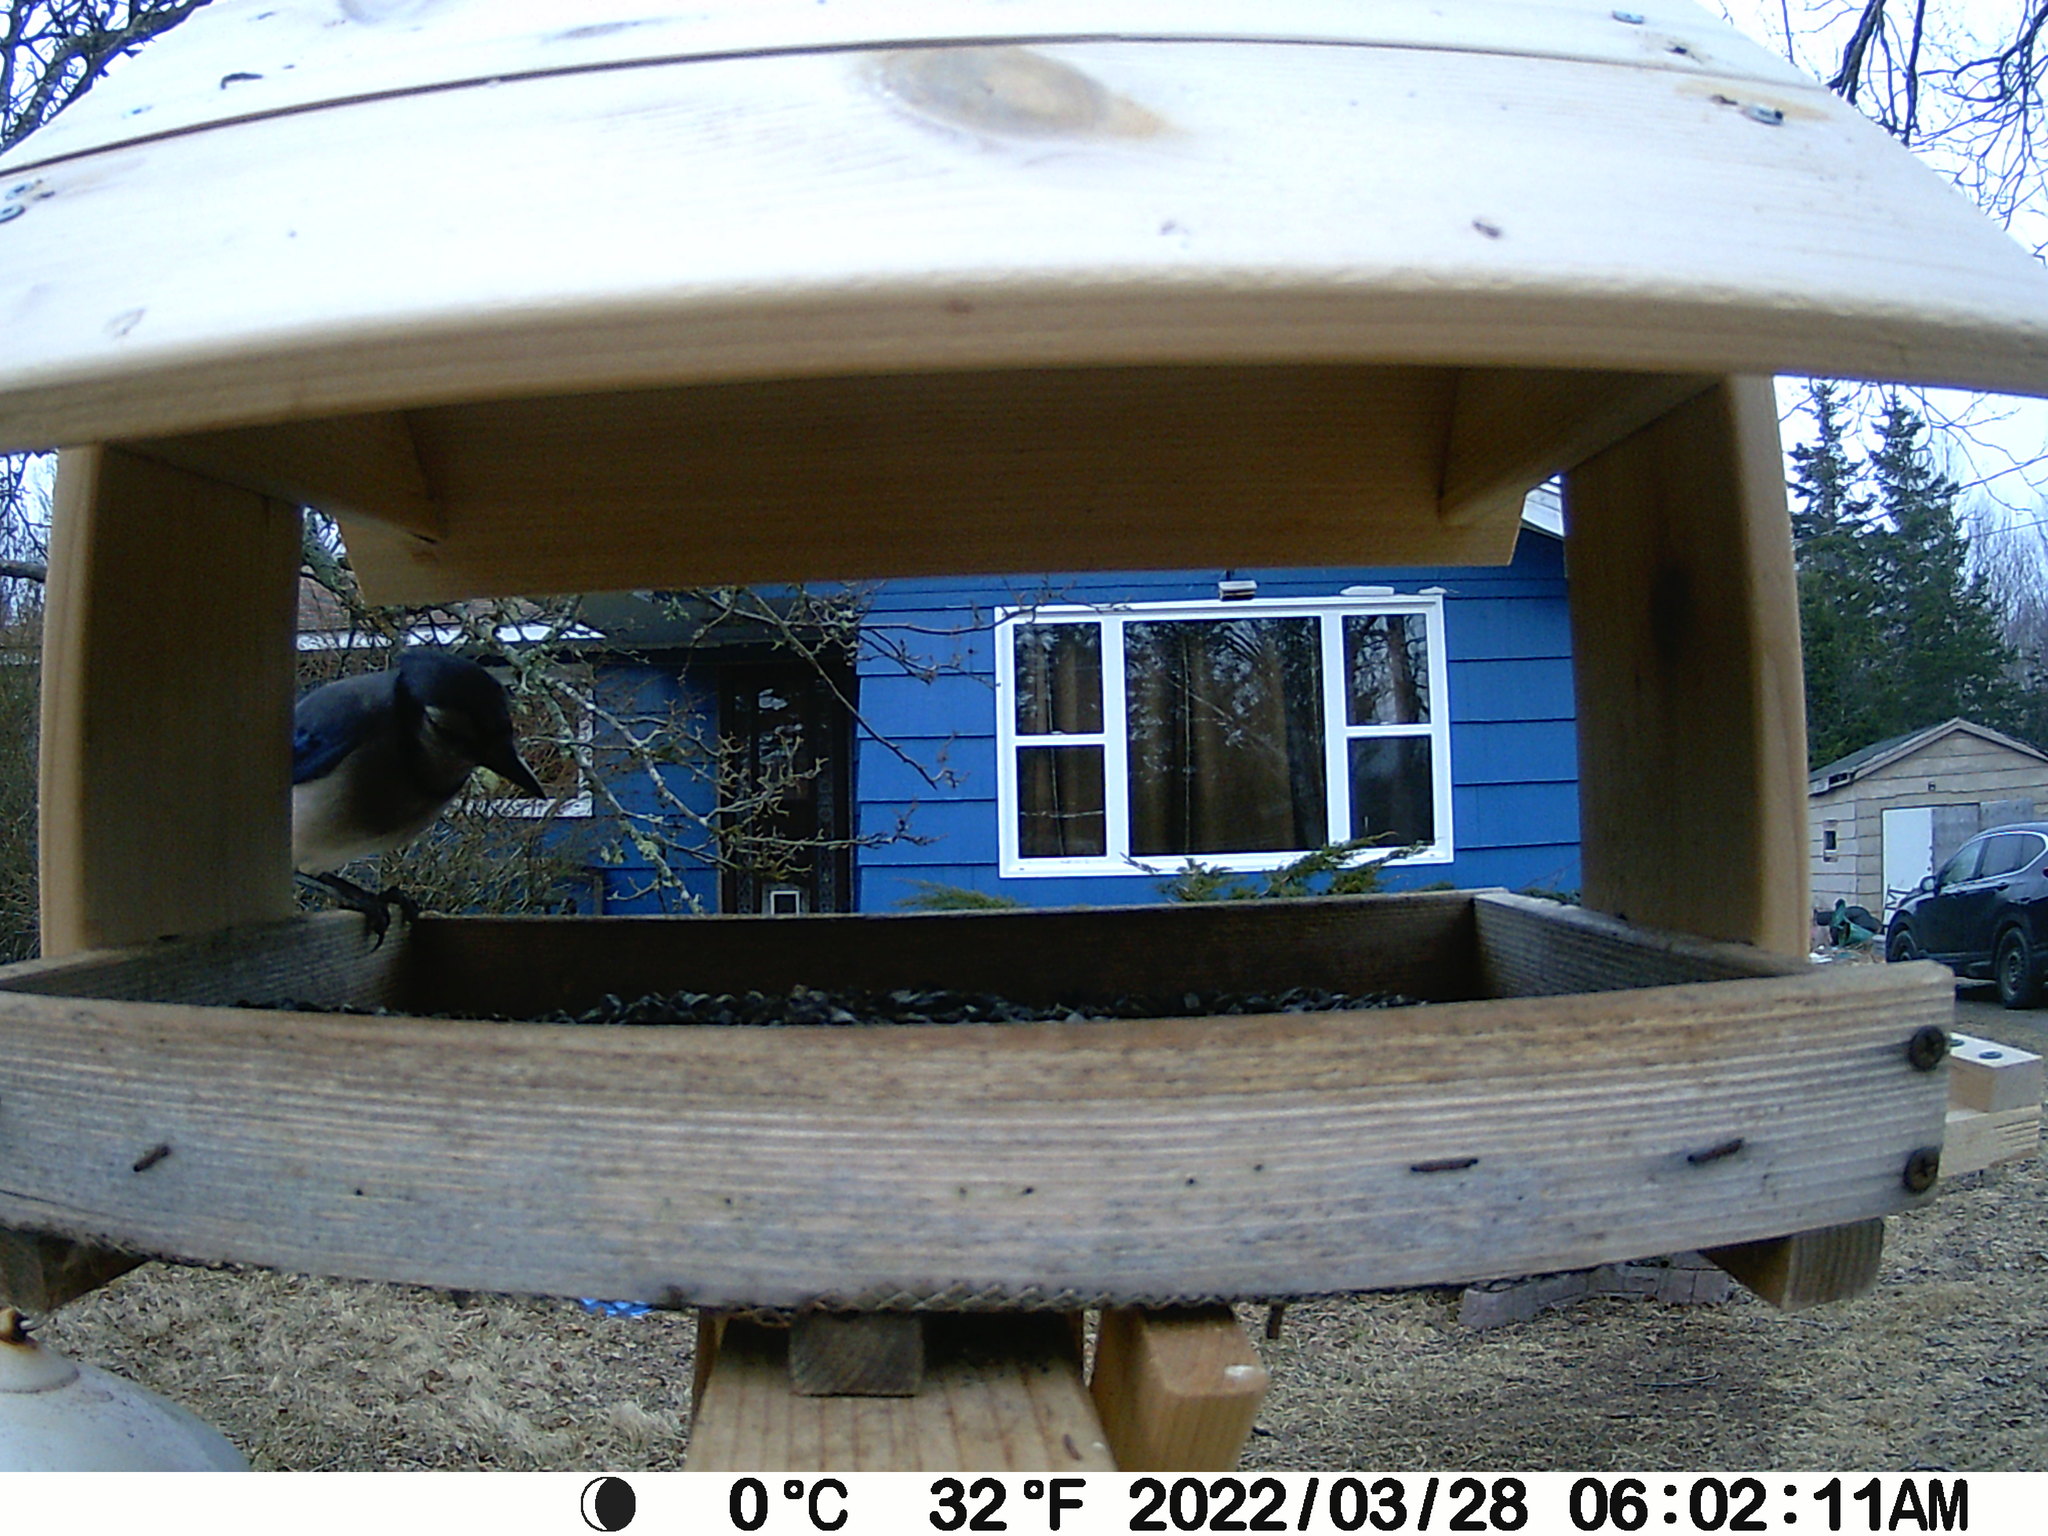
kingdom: Animalia
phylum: Chordata
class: Aves
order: Passeriformes
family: Corvidae
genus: Cyanocitta
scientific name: Cyanocitta cristata
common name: Blue jay
